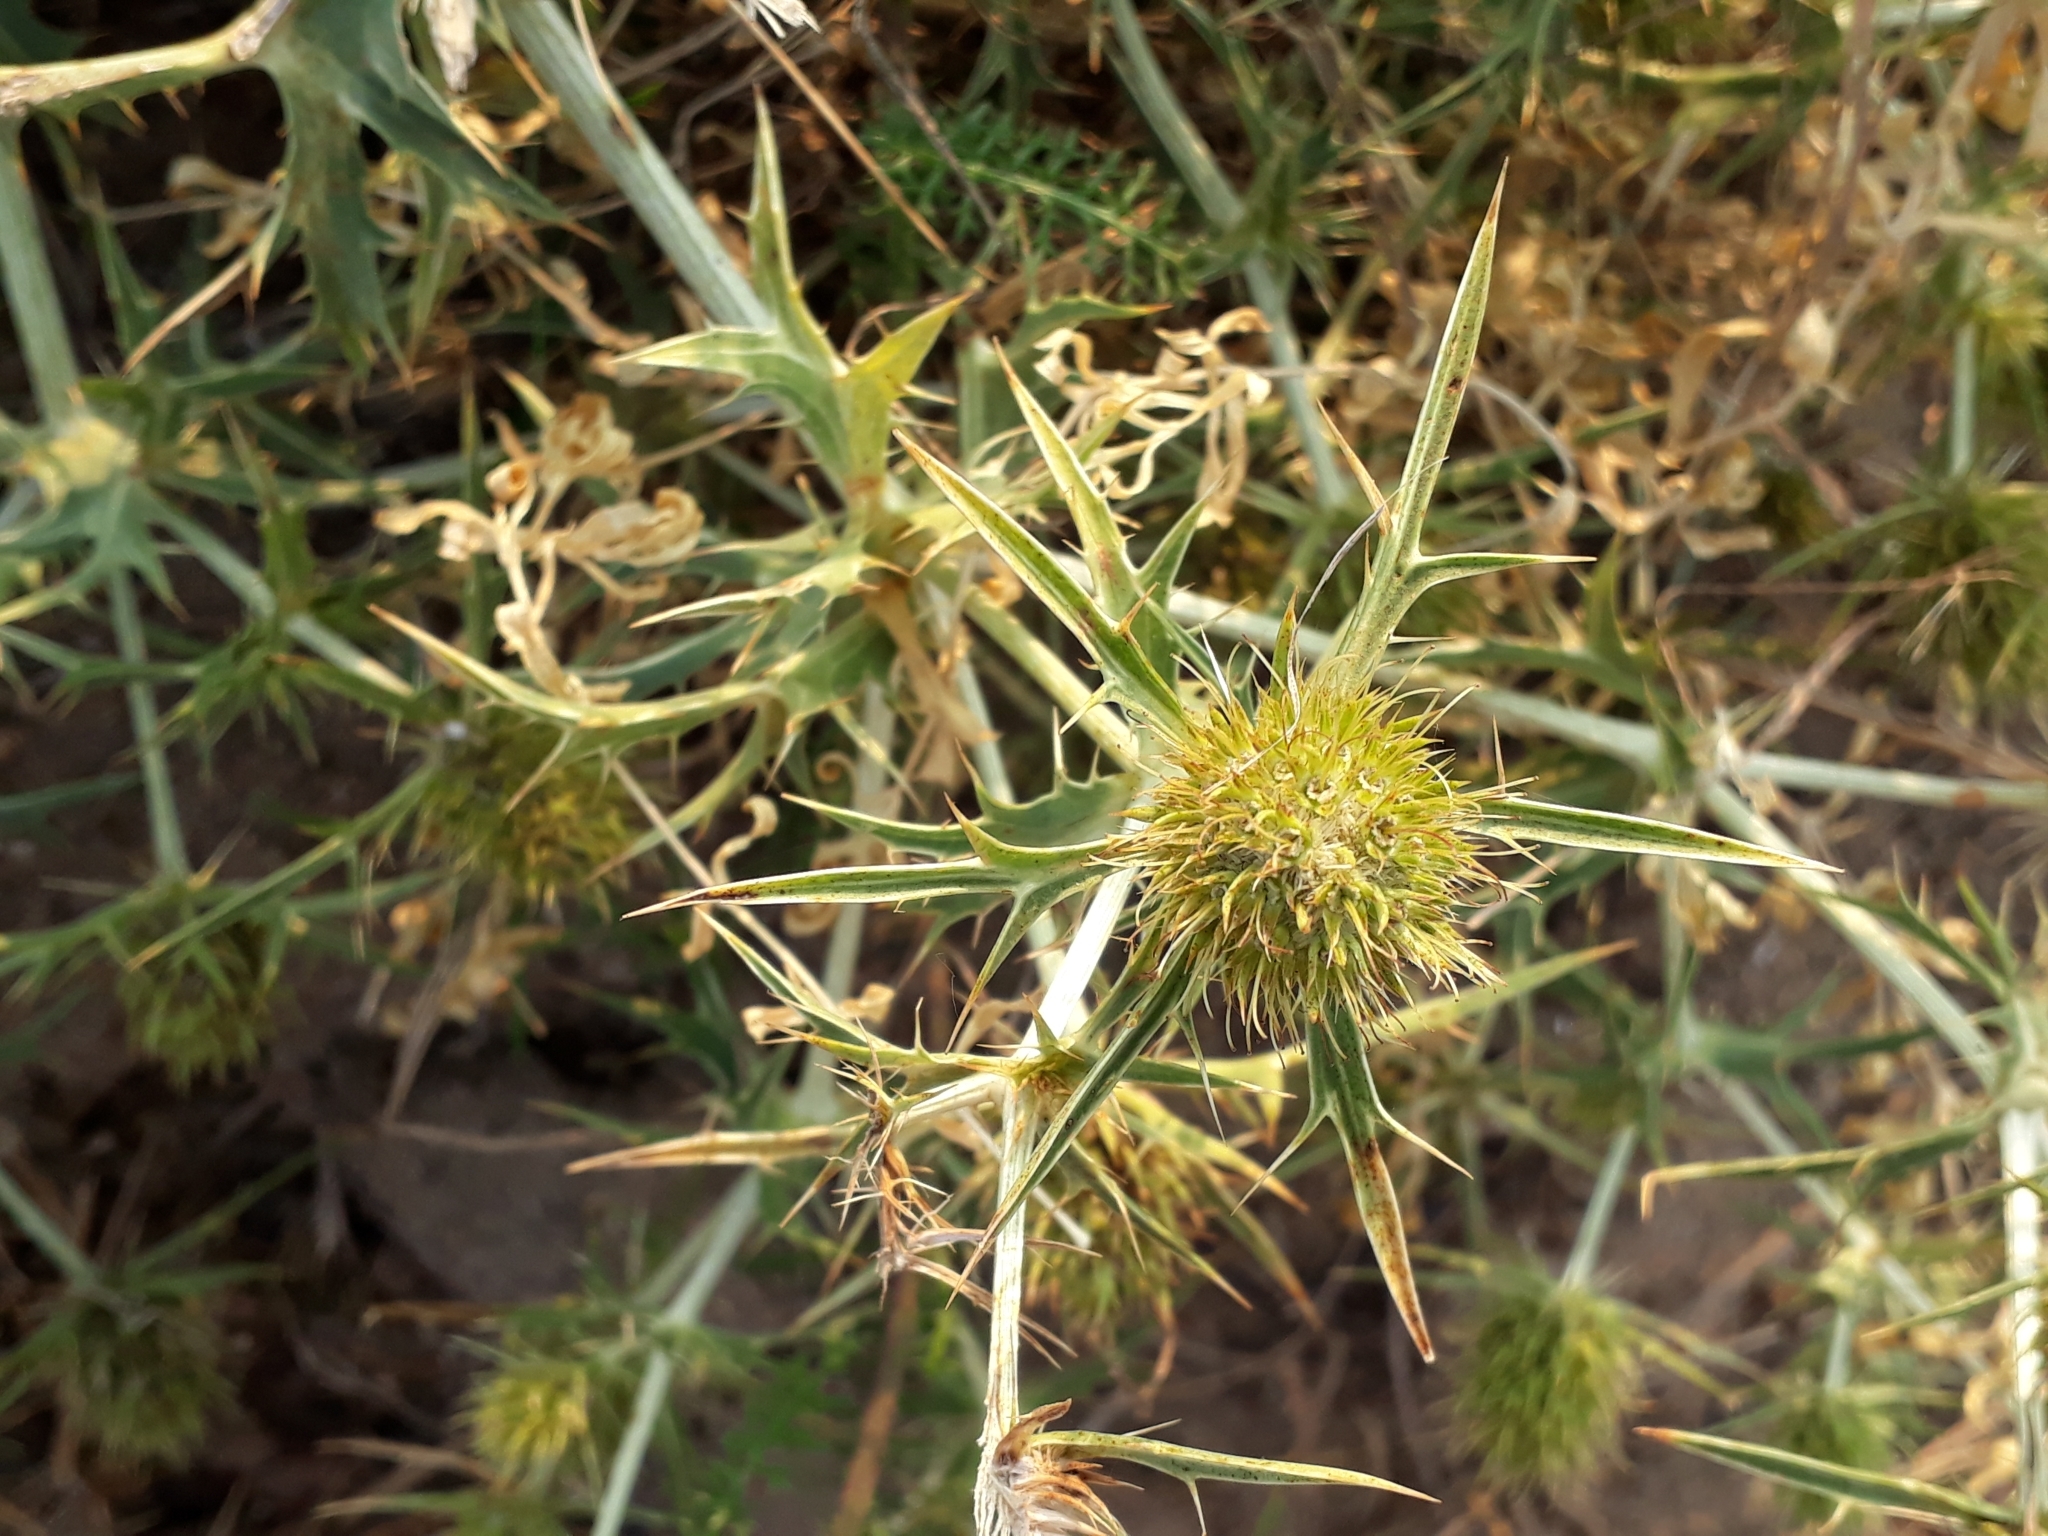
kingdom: Plantae
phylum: Tracheophyta
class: Magnoliopsida
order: Apiales
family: Apiaceae
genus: Eryngium
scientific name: Eryngium campestre
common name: Field eryngo
